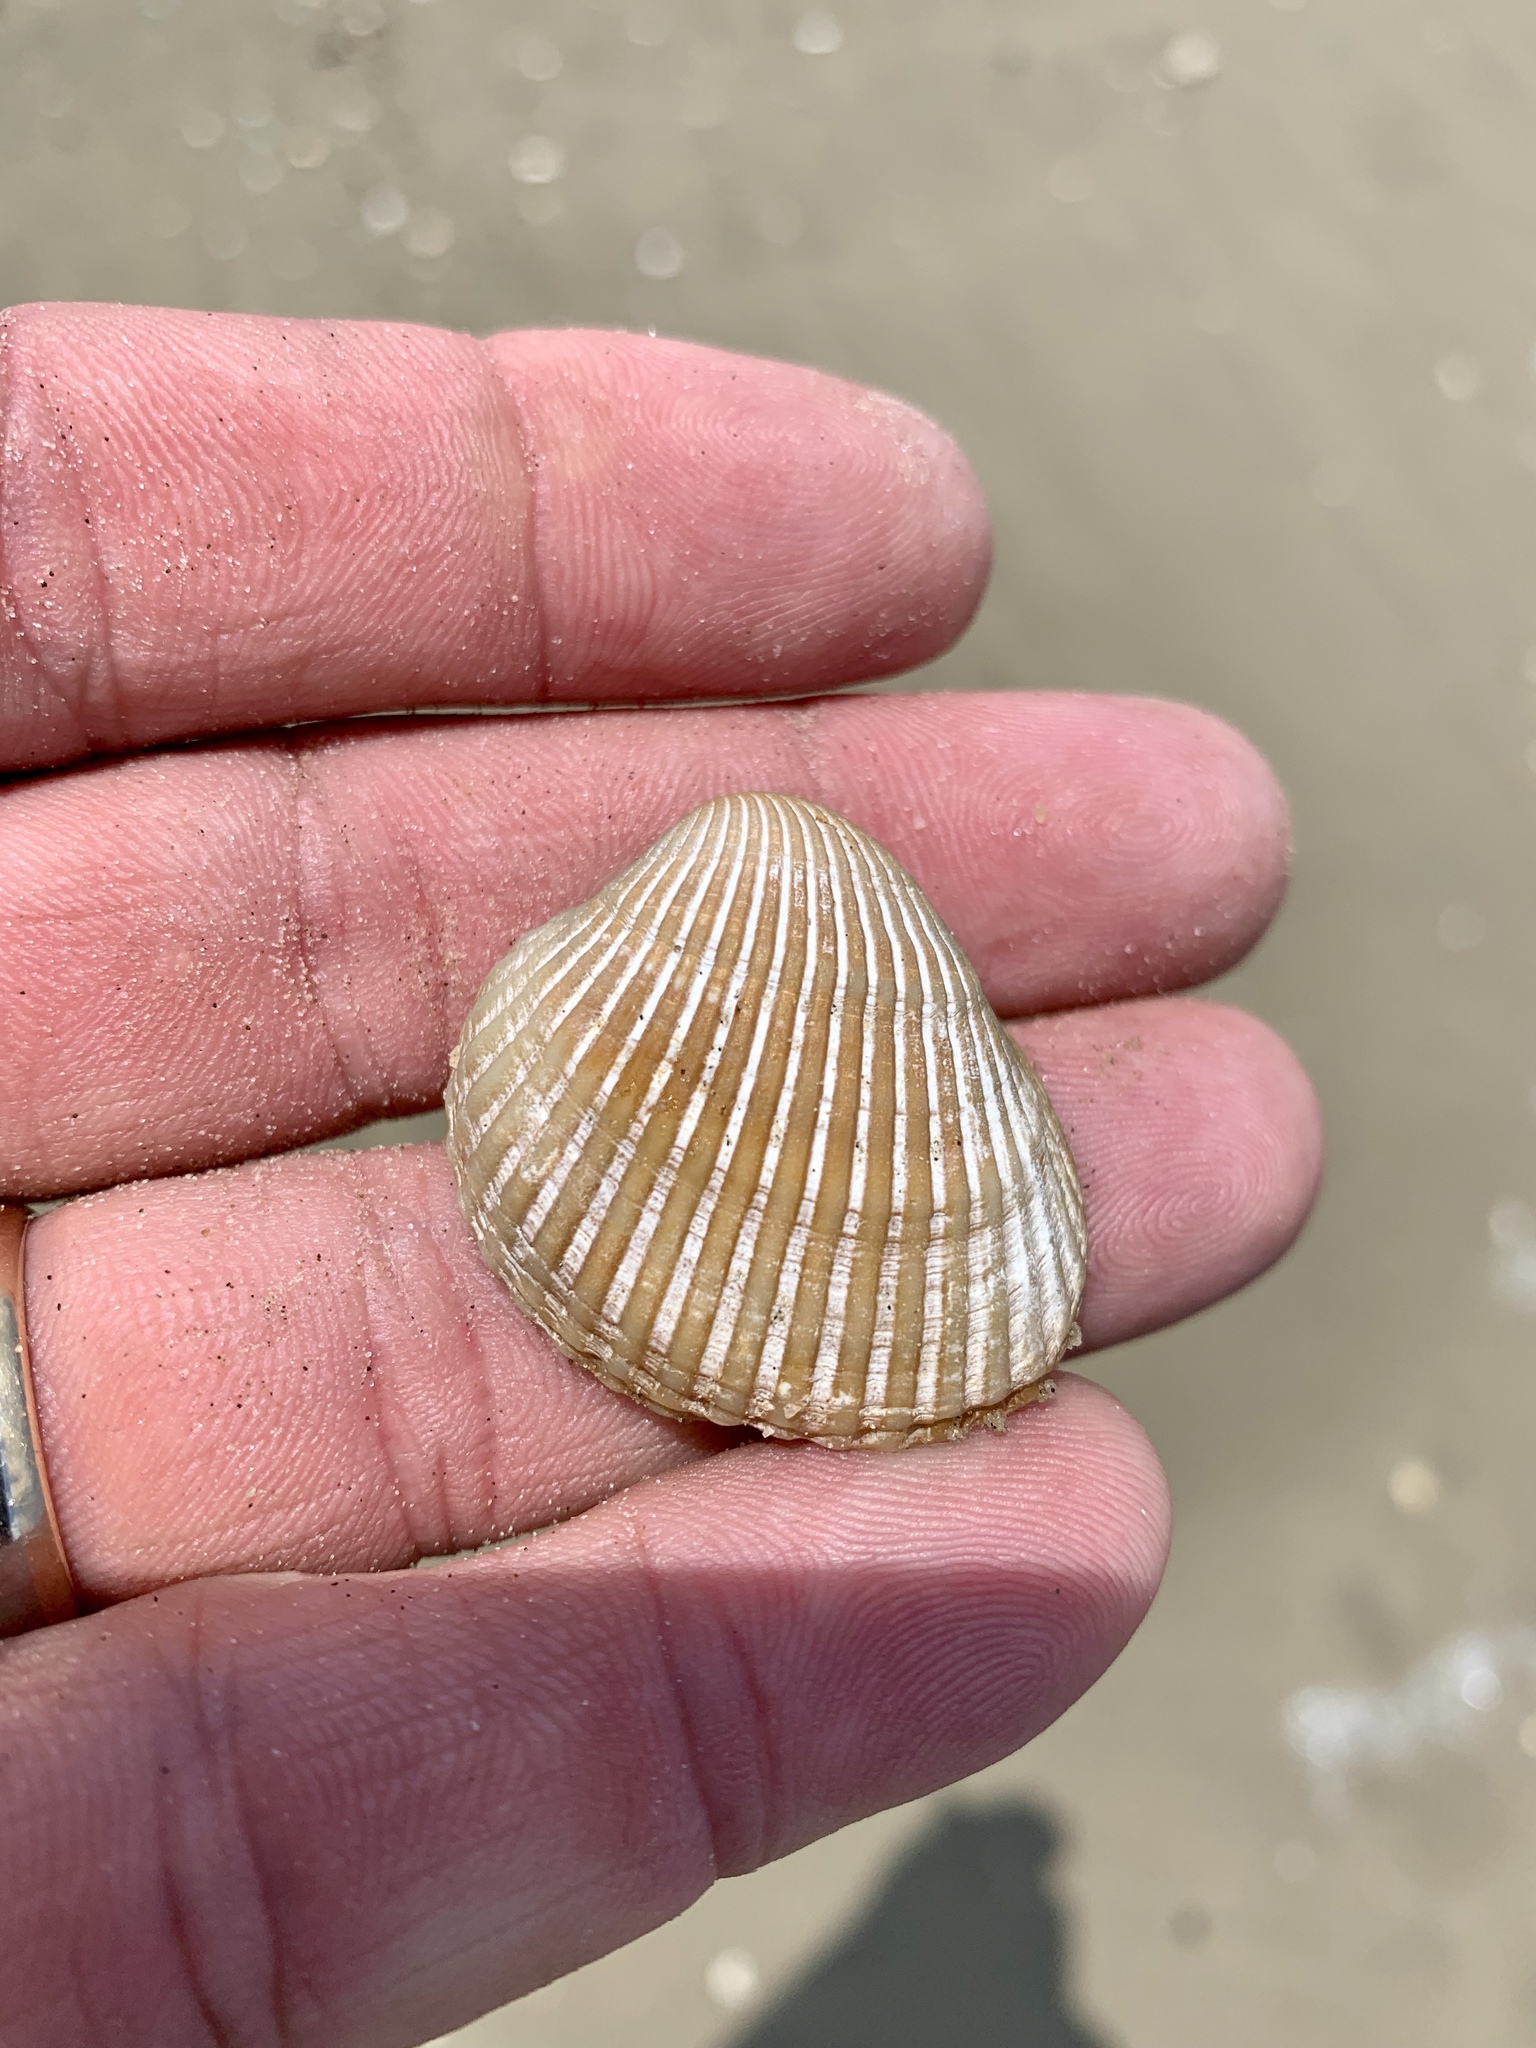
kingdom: Animalia
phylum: Mollusca
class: Bivalvia
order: Arcida
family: Arcidae
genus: Lunarca
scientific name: Lunarca ovalis
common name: Blood ark
